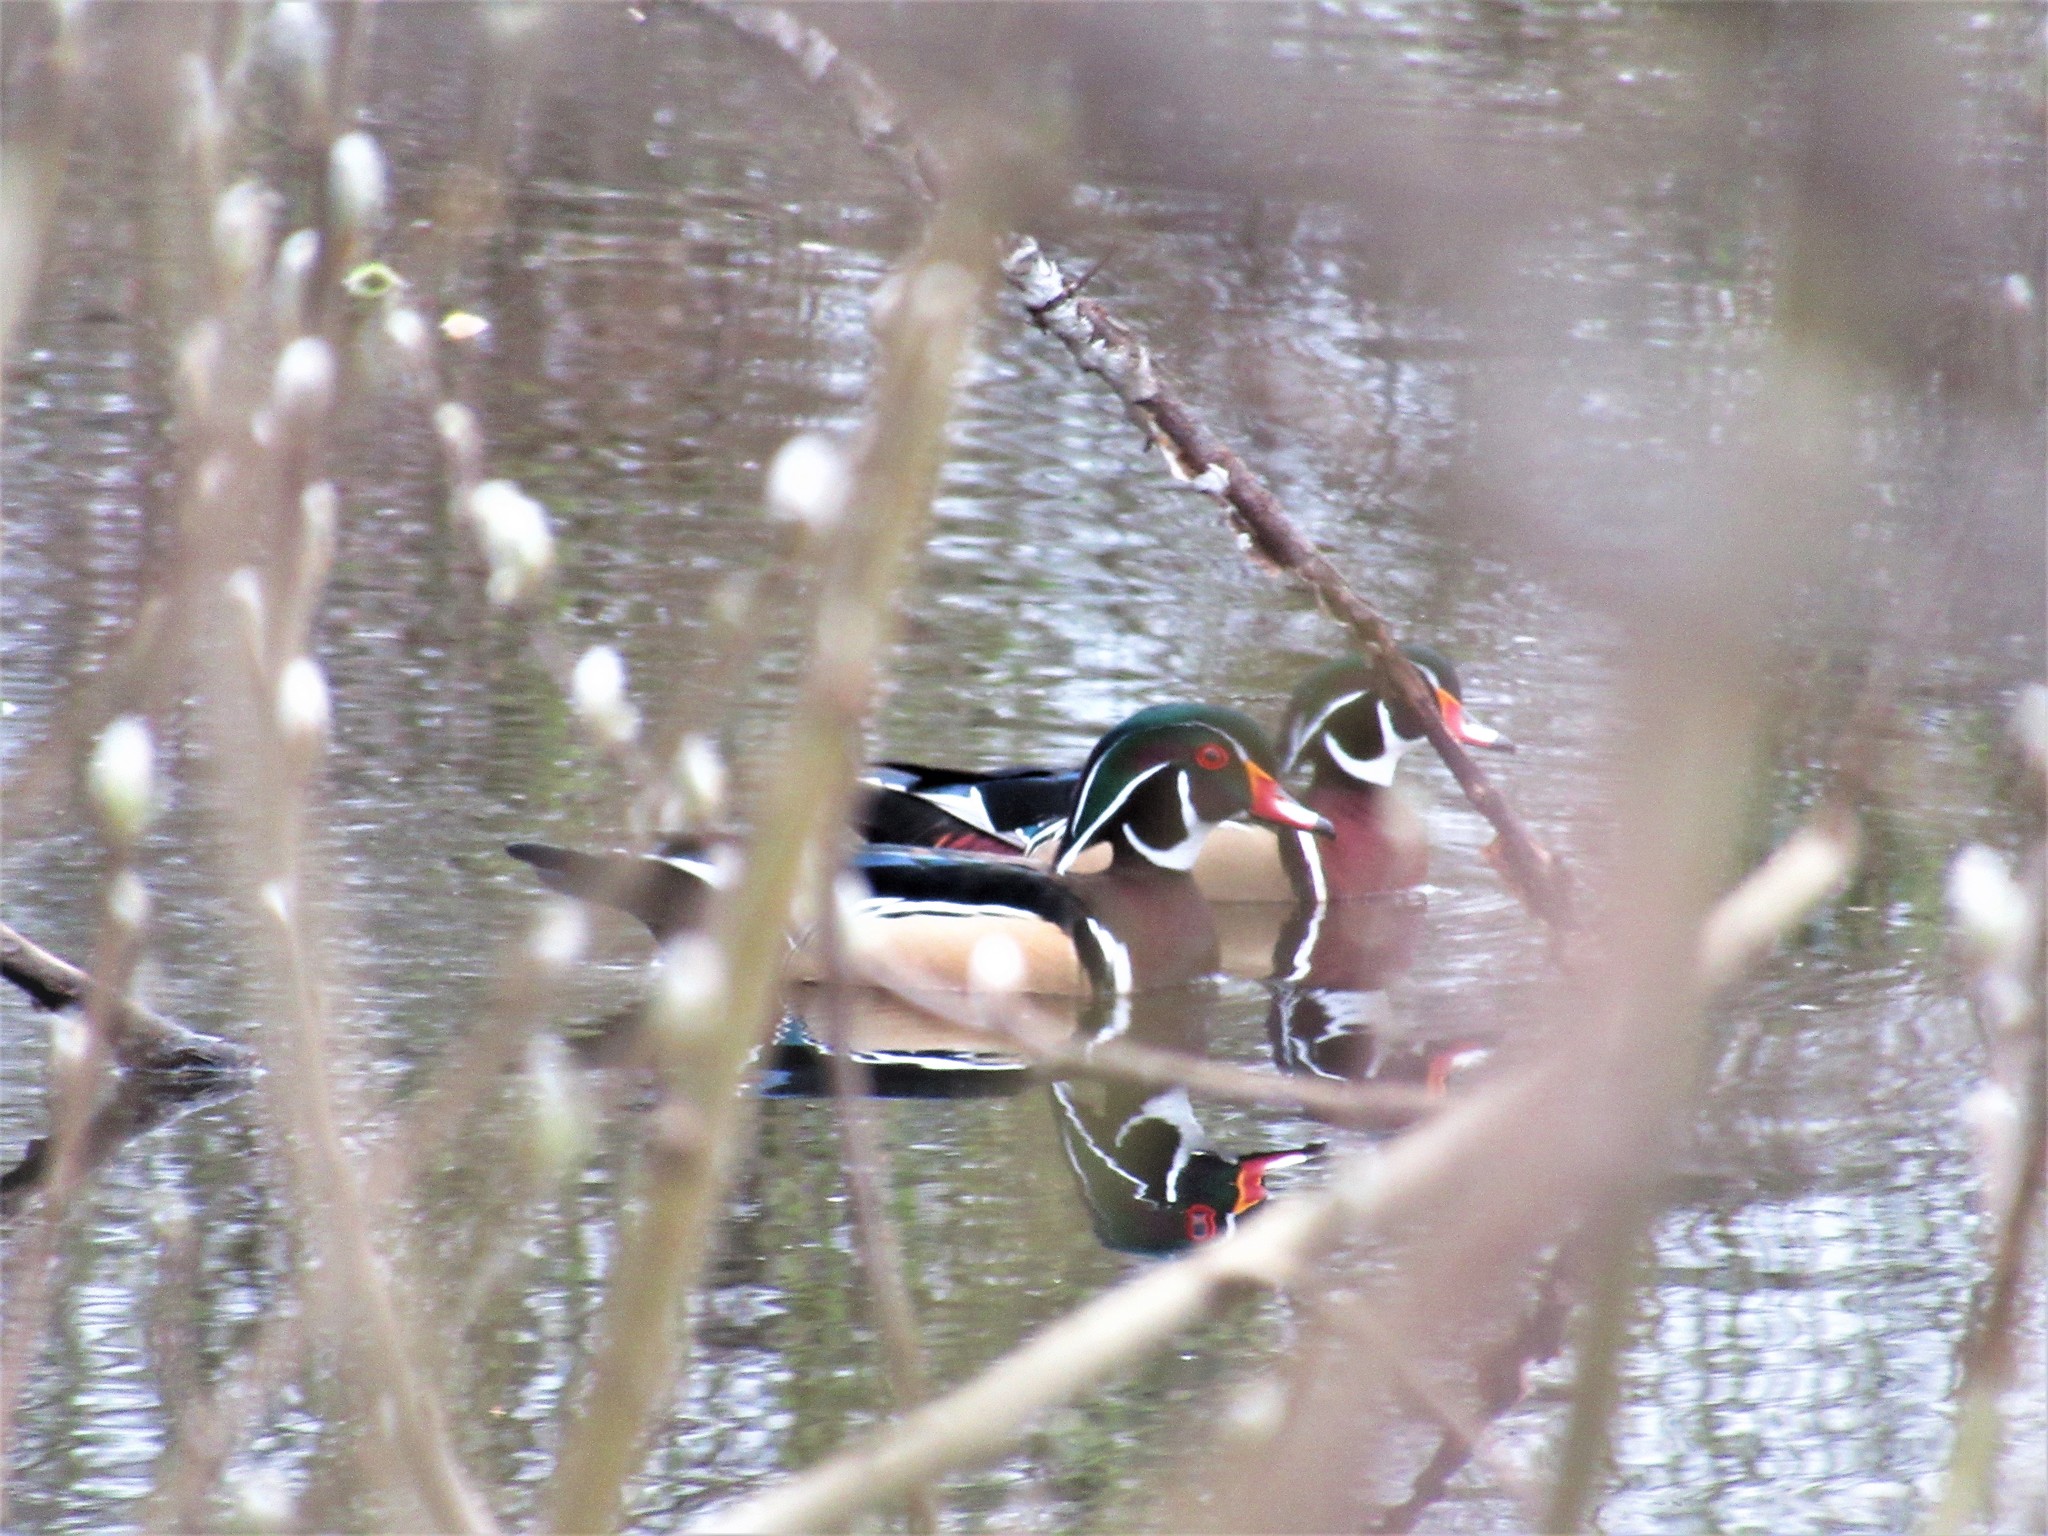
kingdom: Animalia
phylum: Chordata
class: Aves
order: Anseriformes
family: Anatidae
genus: Aix
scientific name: Aix sponsa
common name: Wood duck
